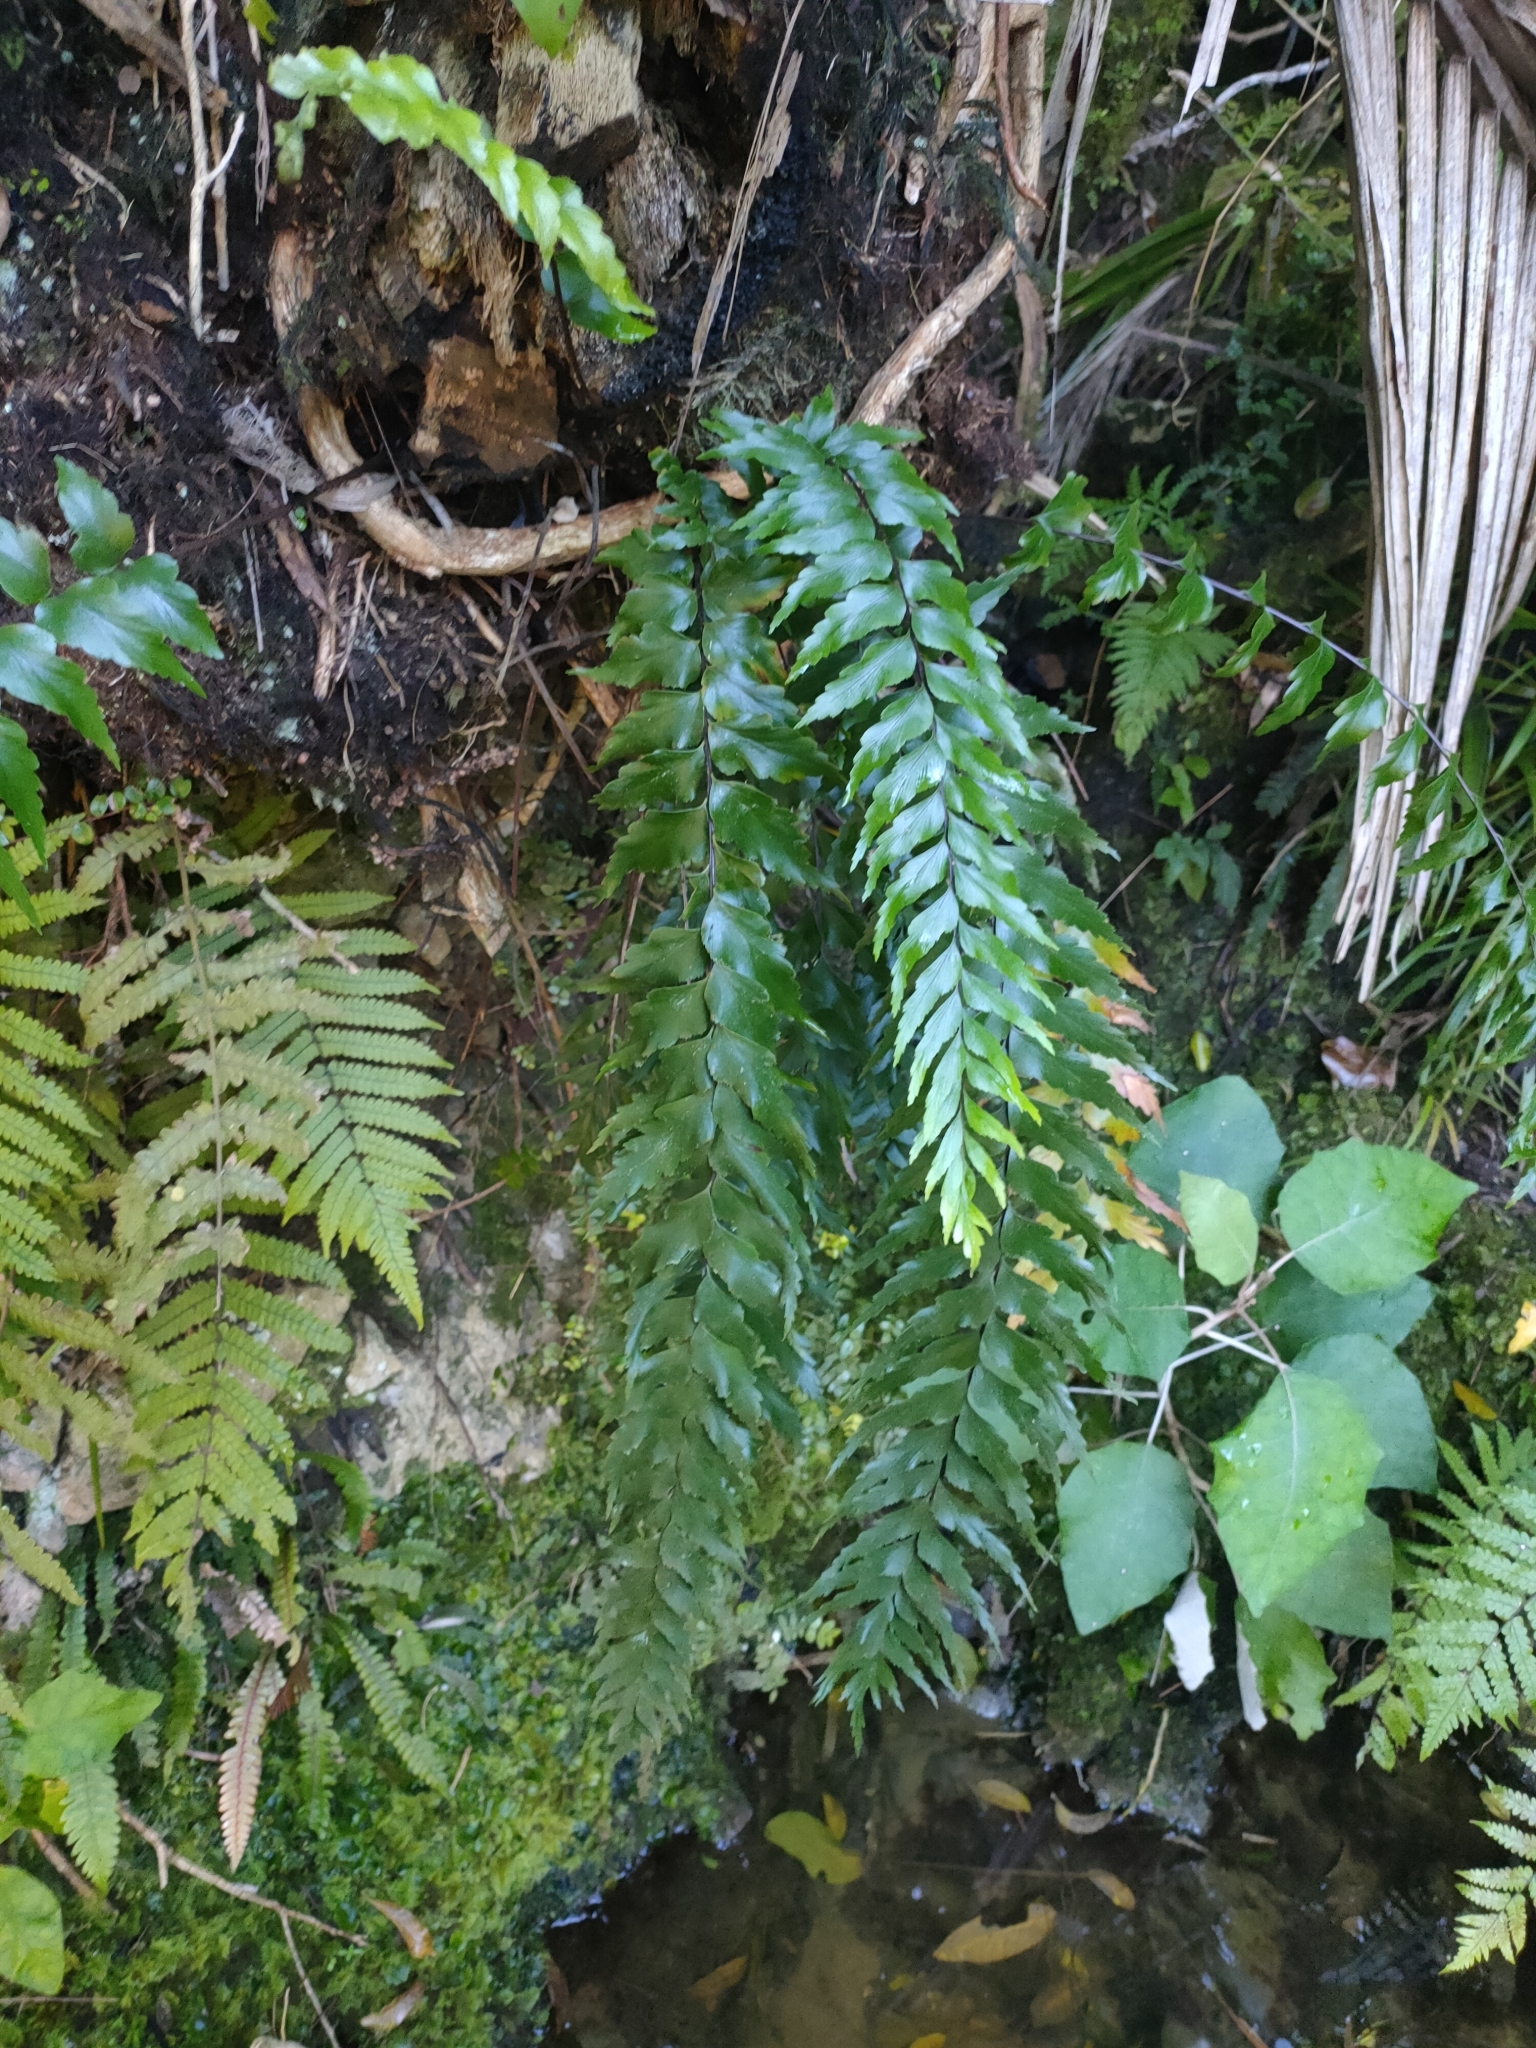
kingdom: Plantae
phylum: Tracheophyta
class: Polypodiopsida
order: Polypodiales
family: Aspleniaceae
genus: Asplenium
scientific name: Asplenium polyodon
